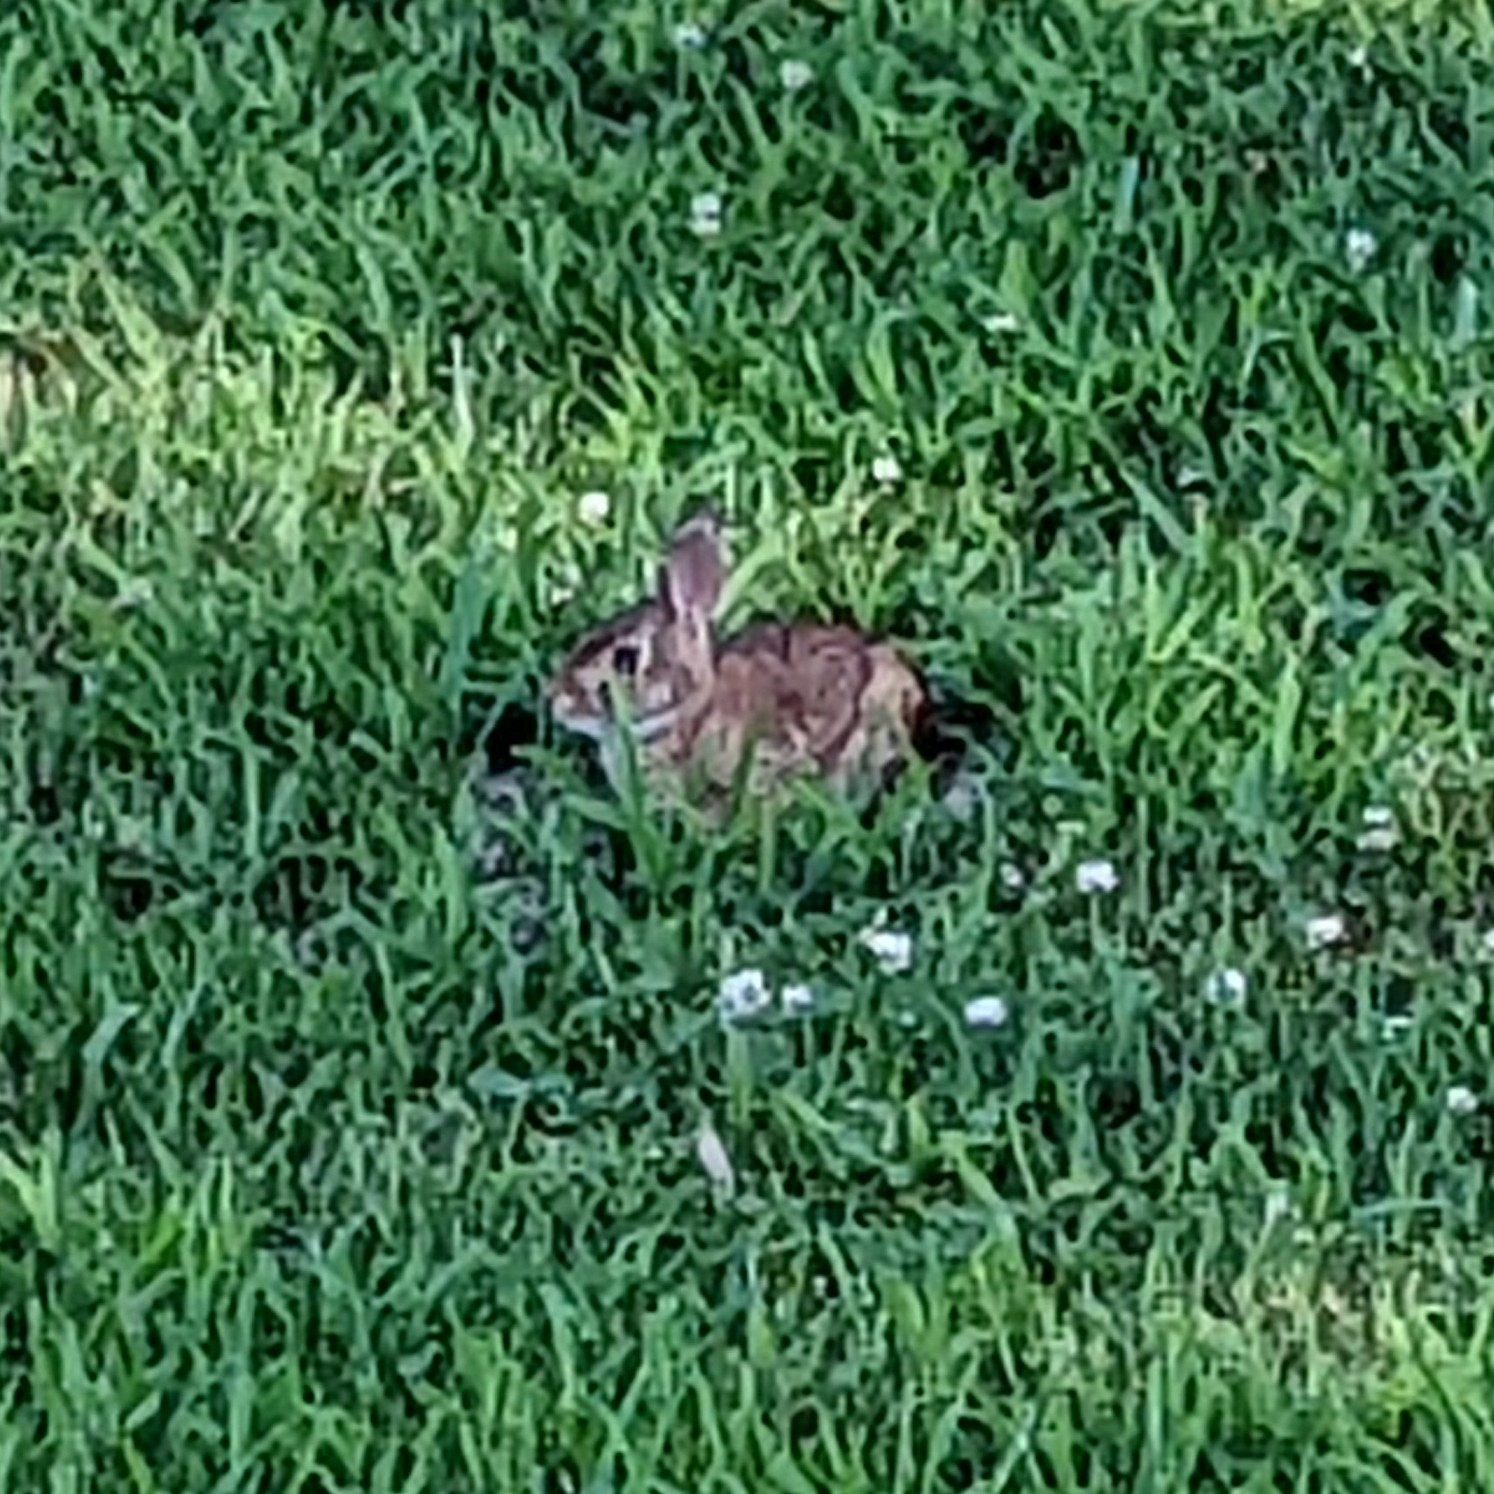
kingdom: Animalia
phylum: Chordata
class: Mammalia
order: Lagomorpha
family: Leporidae
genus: Sylvilagus
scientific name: Sylvilagus floridanus
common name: Eastern cottontail
